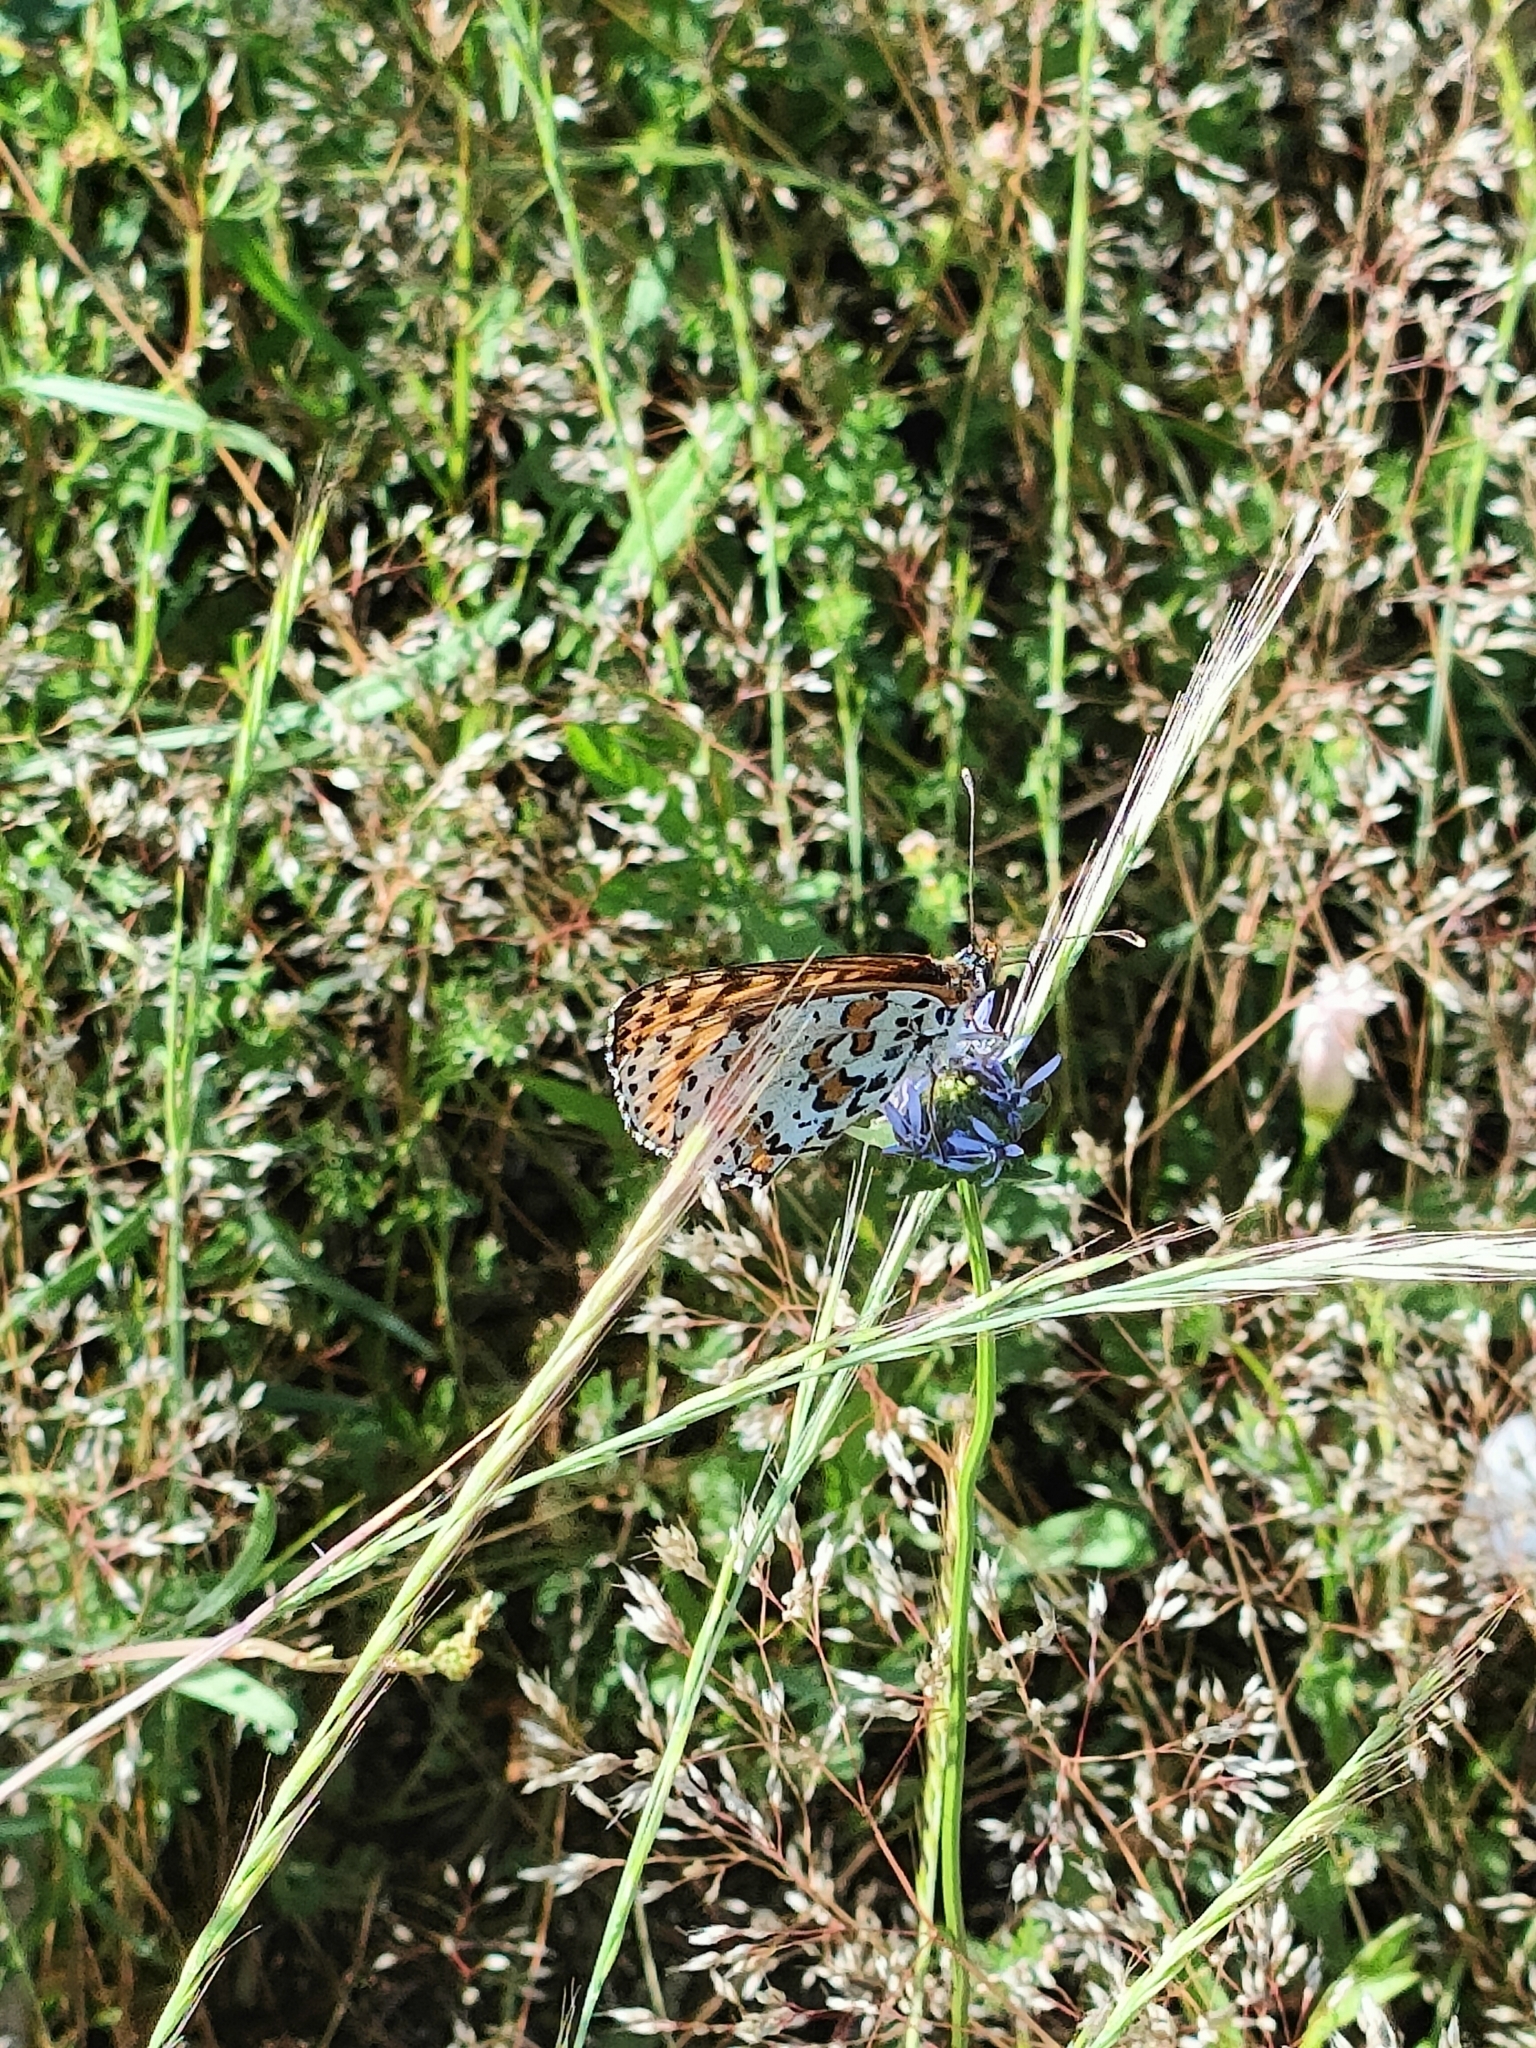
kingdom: Animalia
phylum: Arthropoda
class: Insecta
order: Lepidoptera
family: Nymphalidae
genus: Melitaea
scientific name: Melitaea didyma
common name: Spotted fritillary
